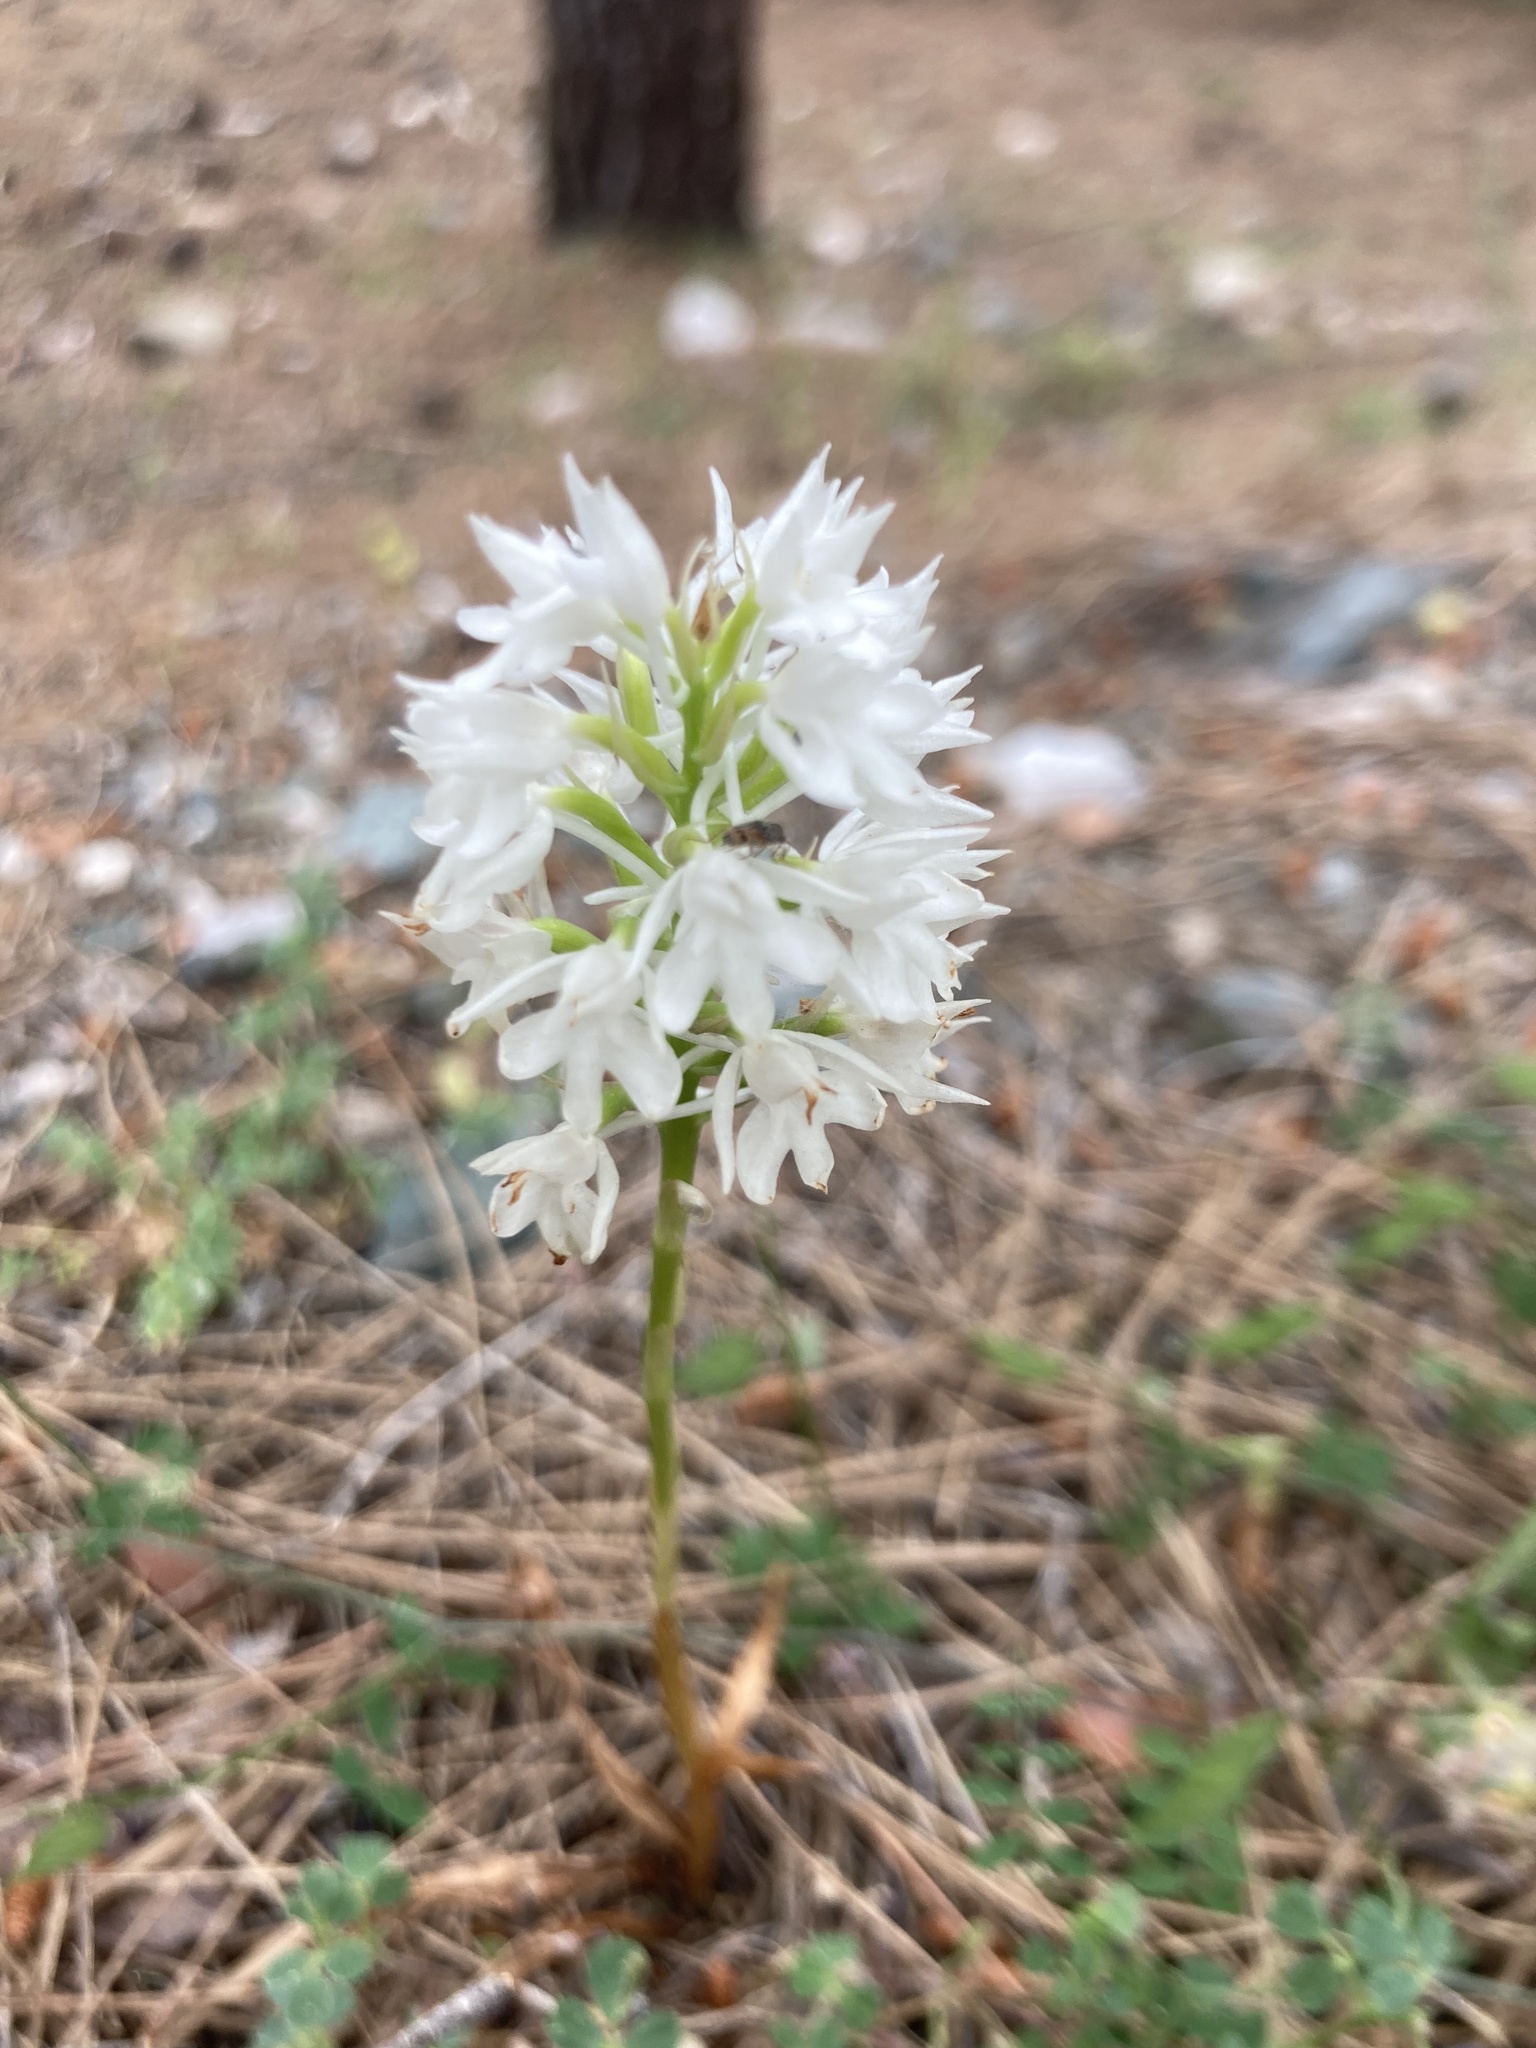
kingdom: Plantae
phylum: Tracheophyta
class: Liliopsida
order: Asparagales
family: Orchidaceae
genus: Anacamptis
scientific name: Anacamptis pyramidalis
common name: Pyramidal orchid
